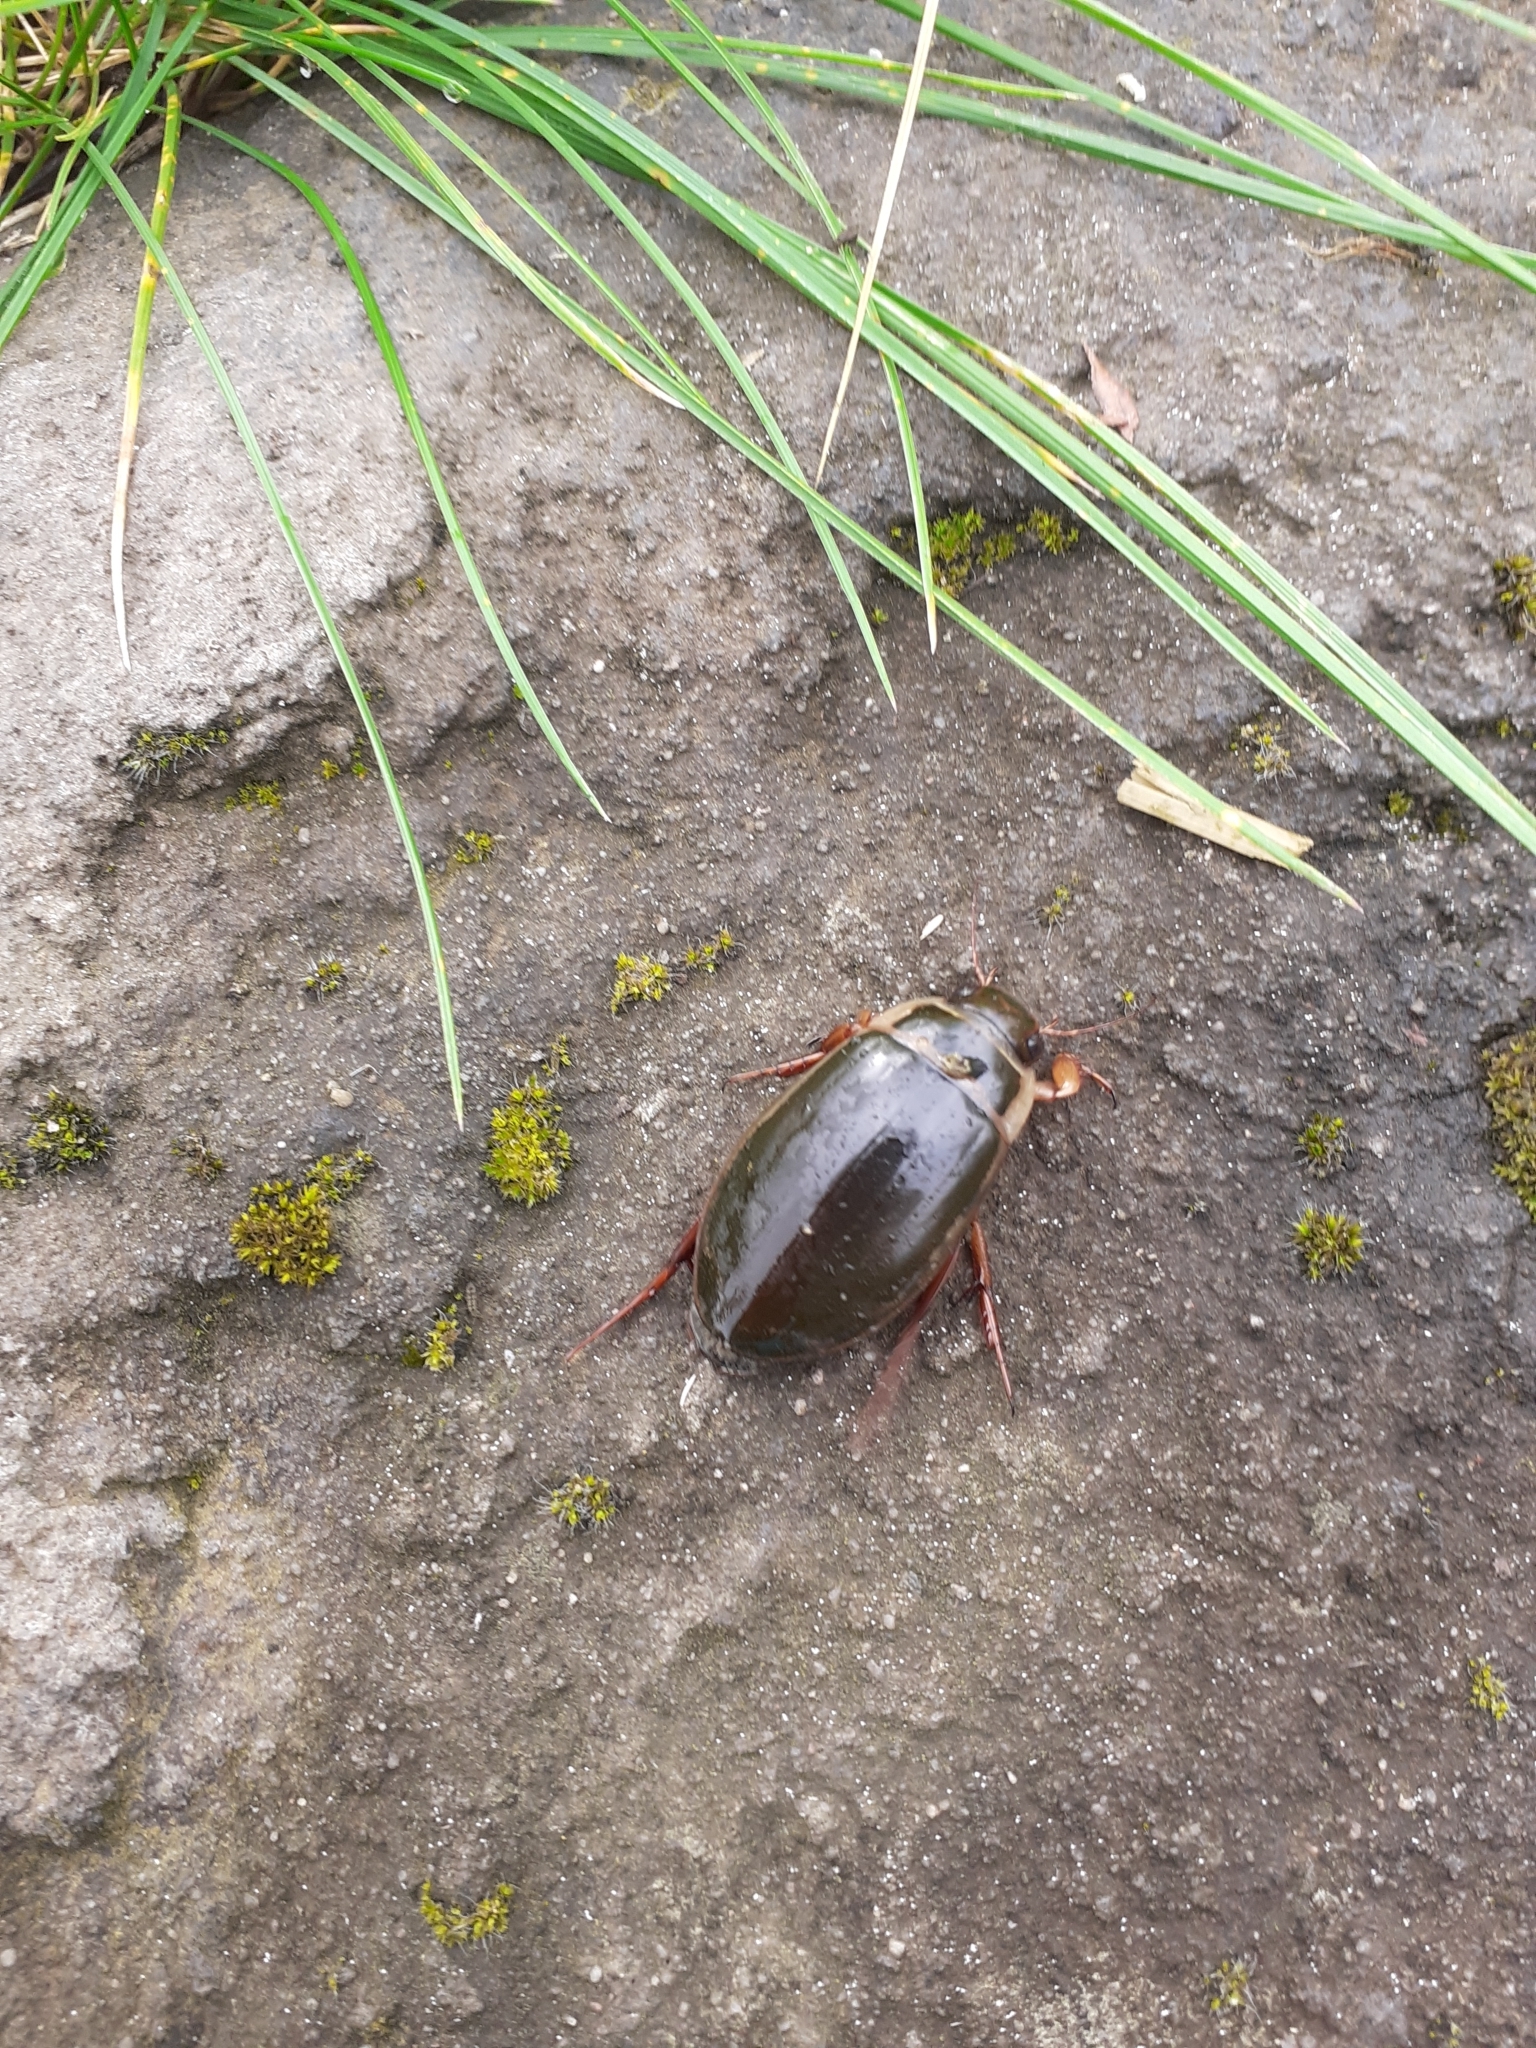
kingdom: Animalia
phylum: Arthropoda
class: Insecta
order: Coleoptera
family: Dytiscidae
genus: Dytiscus
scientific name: Dytiscus marginalis
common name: Great water beetle
